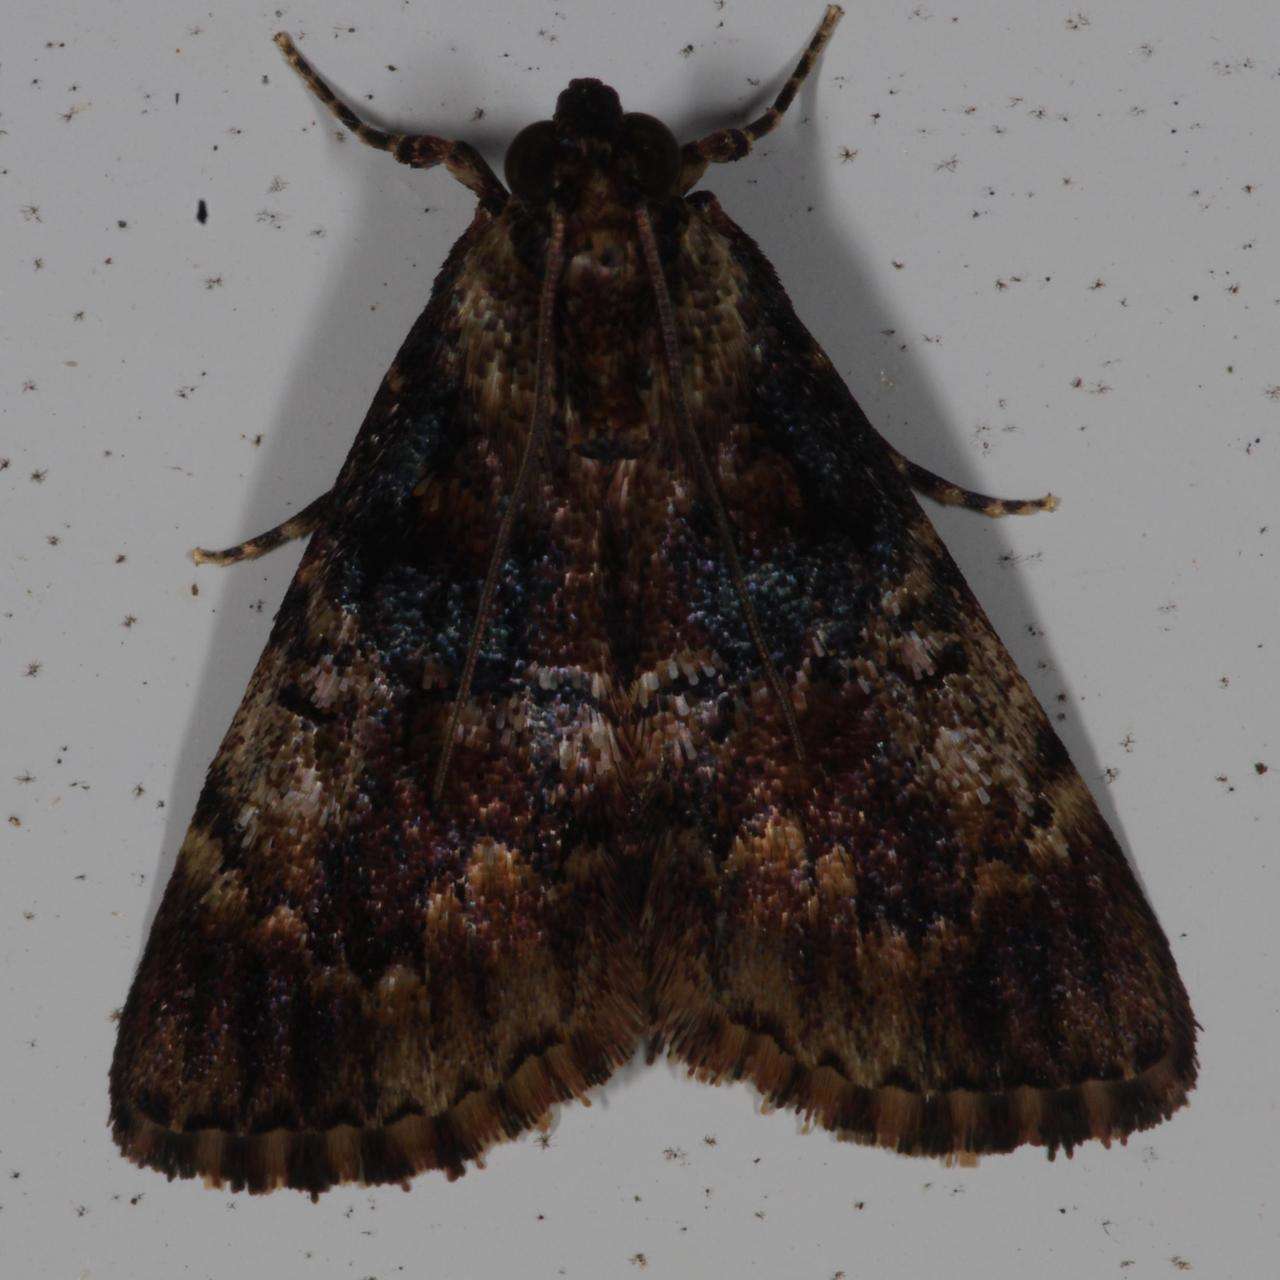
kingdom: Animalia
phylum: Arthropoda
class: Insecta
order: Lepidoptera
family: Pyralidae
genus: Orthaga
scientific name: Orthaga thyrisalis
